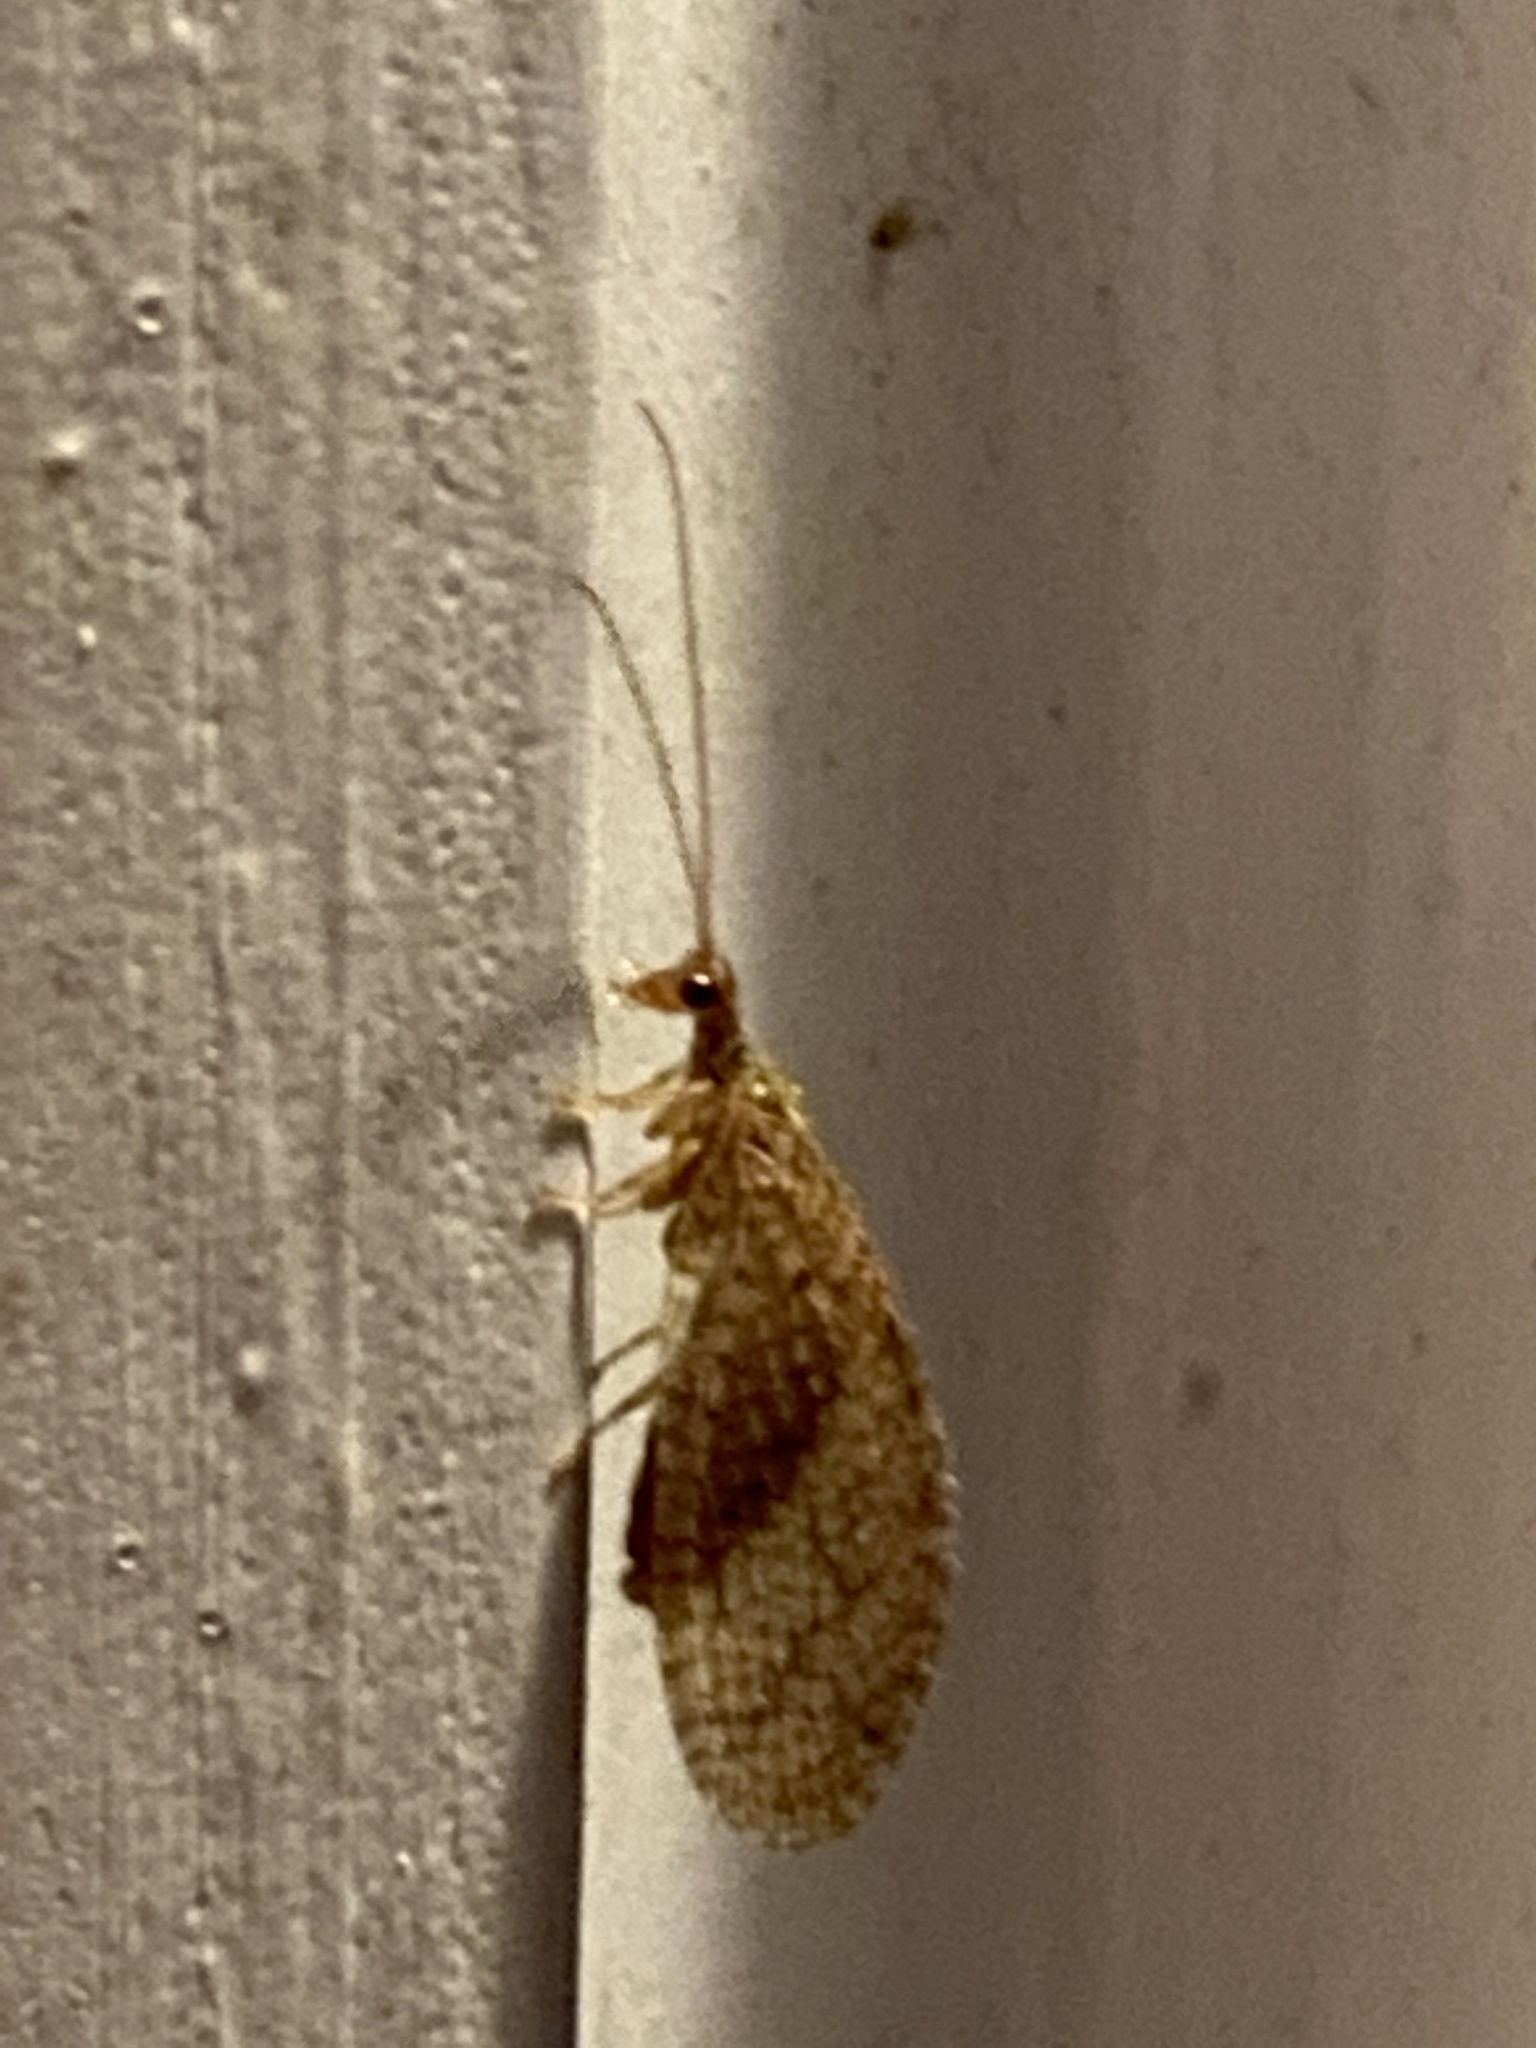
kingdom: Animalia
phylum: Arthropoda
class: Insecta
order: Neuroptera
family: Hemerobiidae
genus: Micromus
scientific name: Micromus posticus
